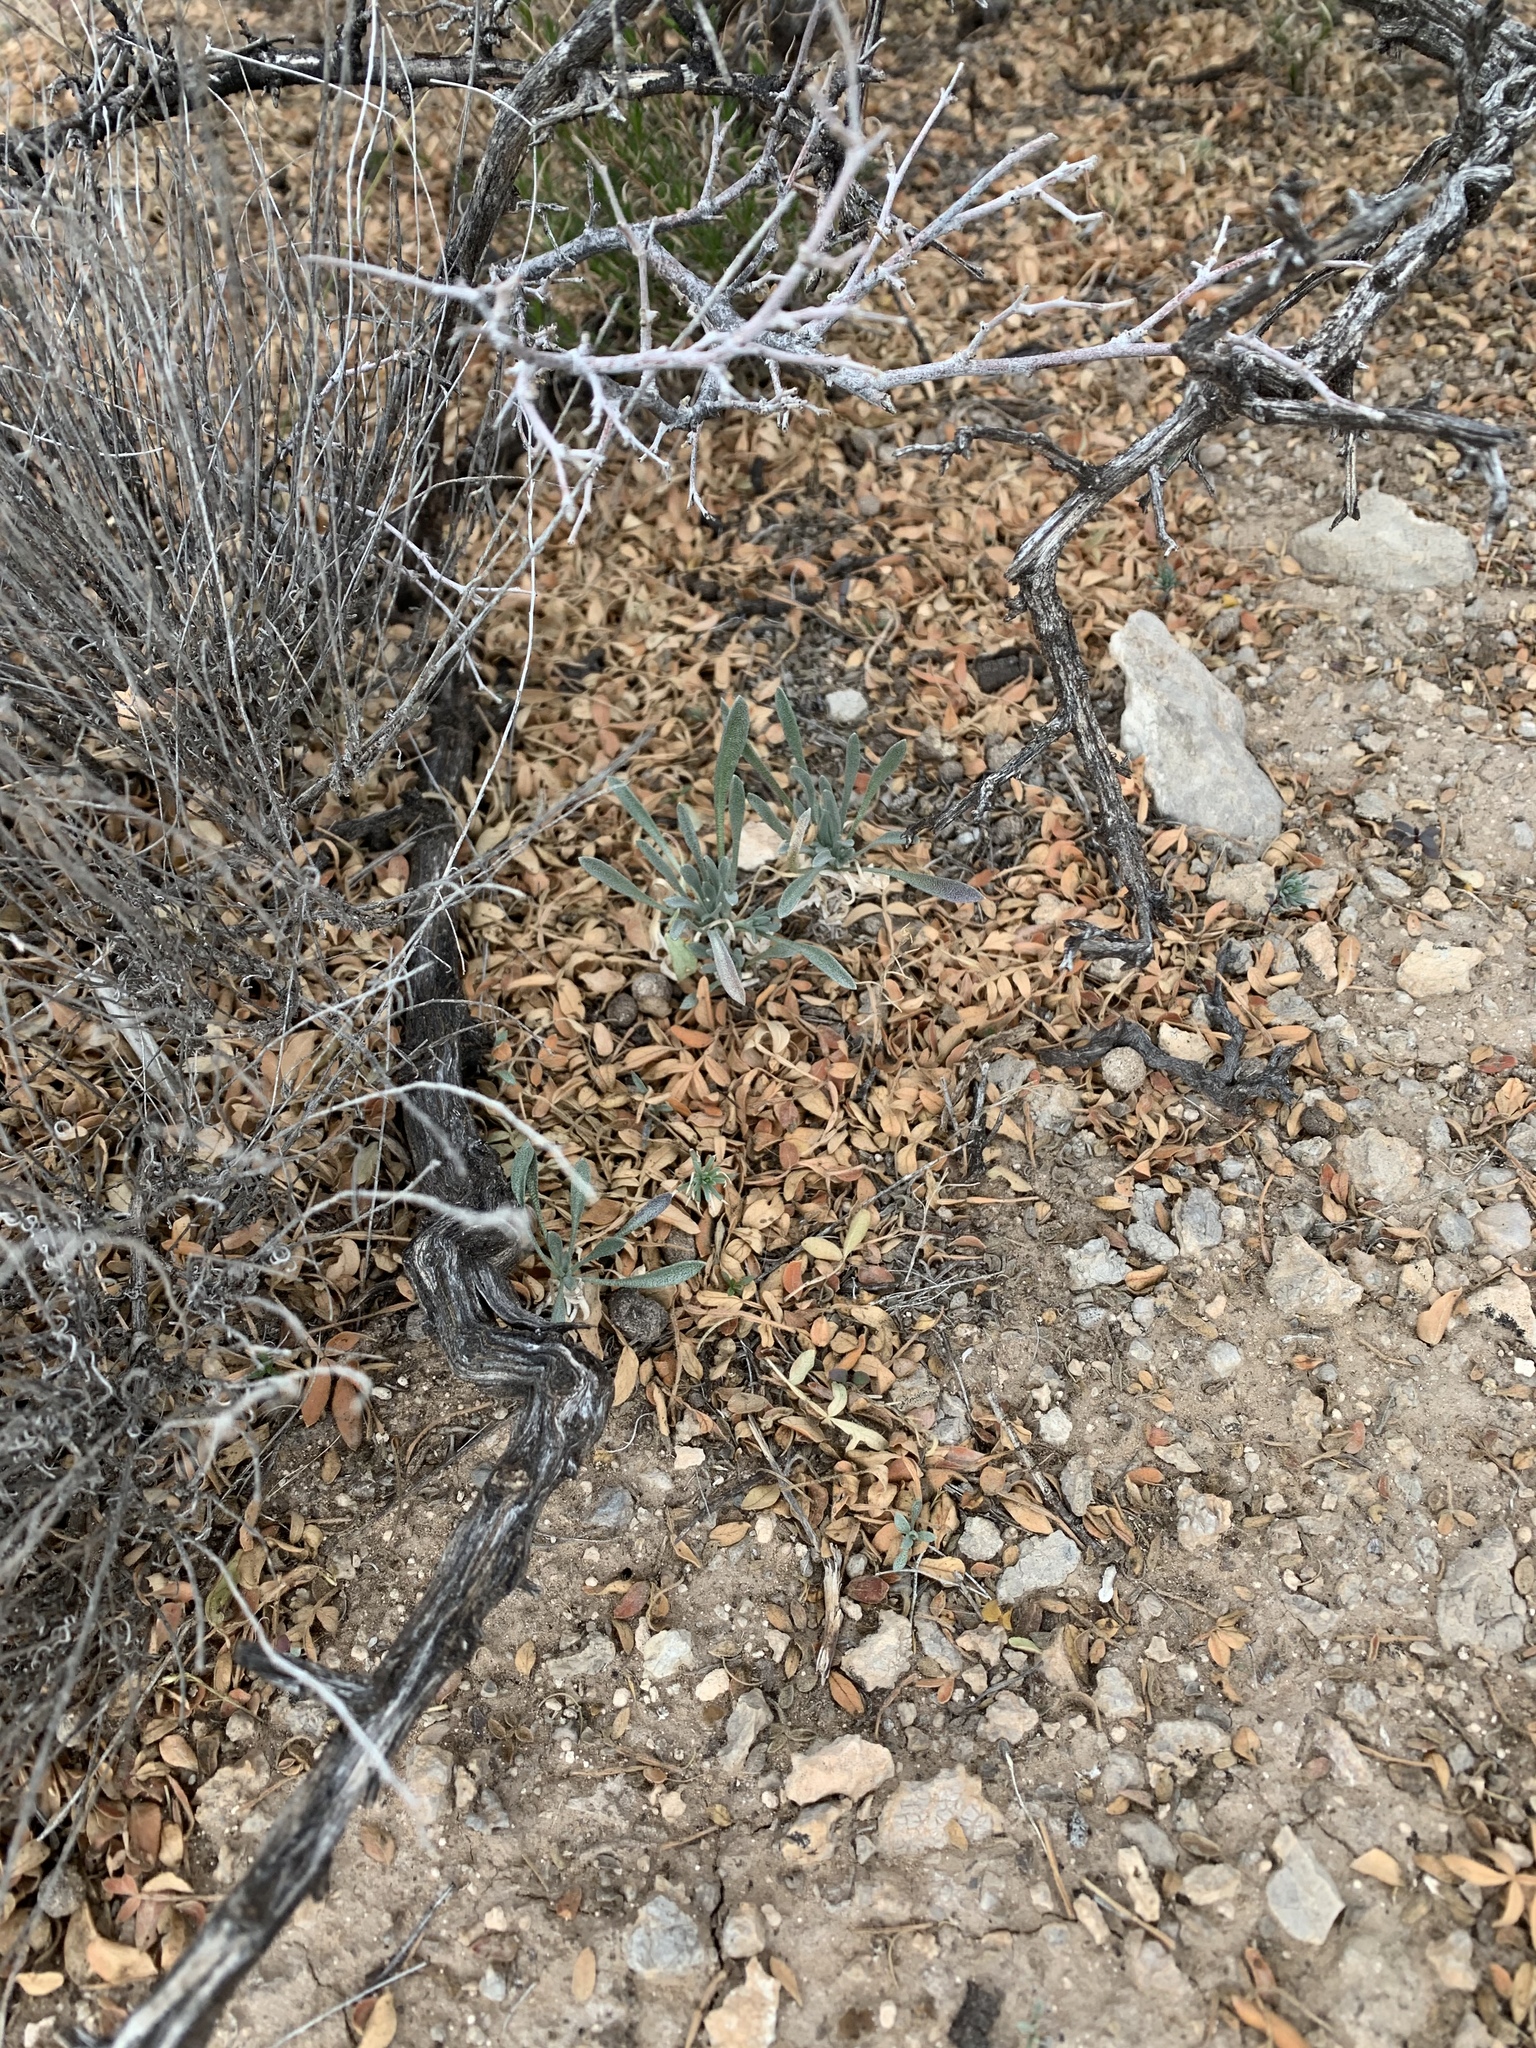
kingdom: Plantae
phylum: Tracheophyta
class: Magnoliopsida
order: Sapindales
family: Anacardiaceae
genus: Rhus
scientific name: Rhus microphylla
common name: Desert sumac
